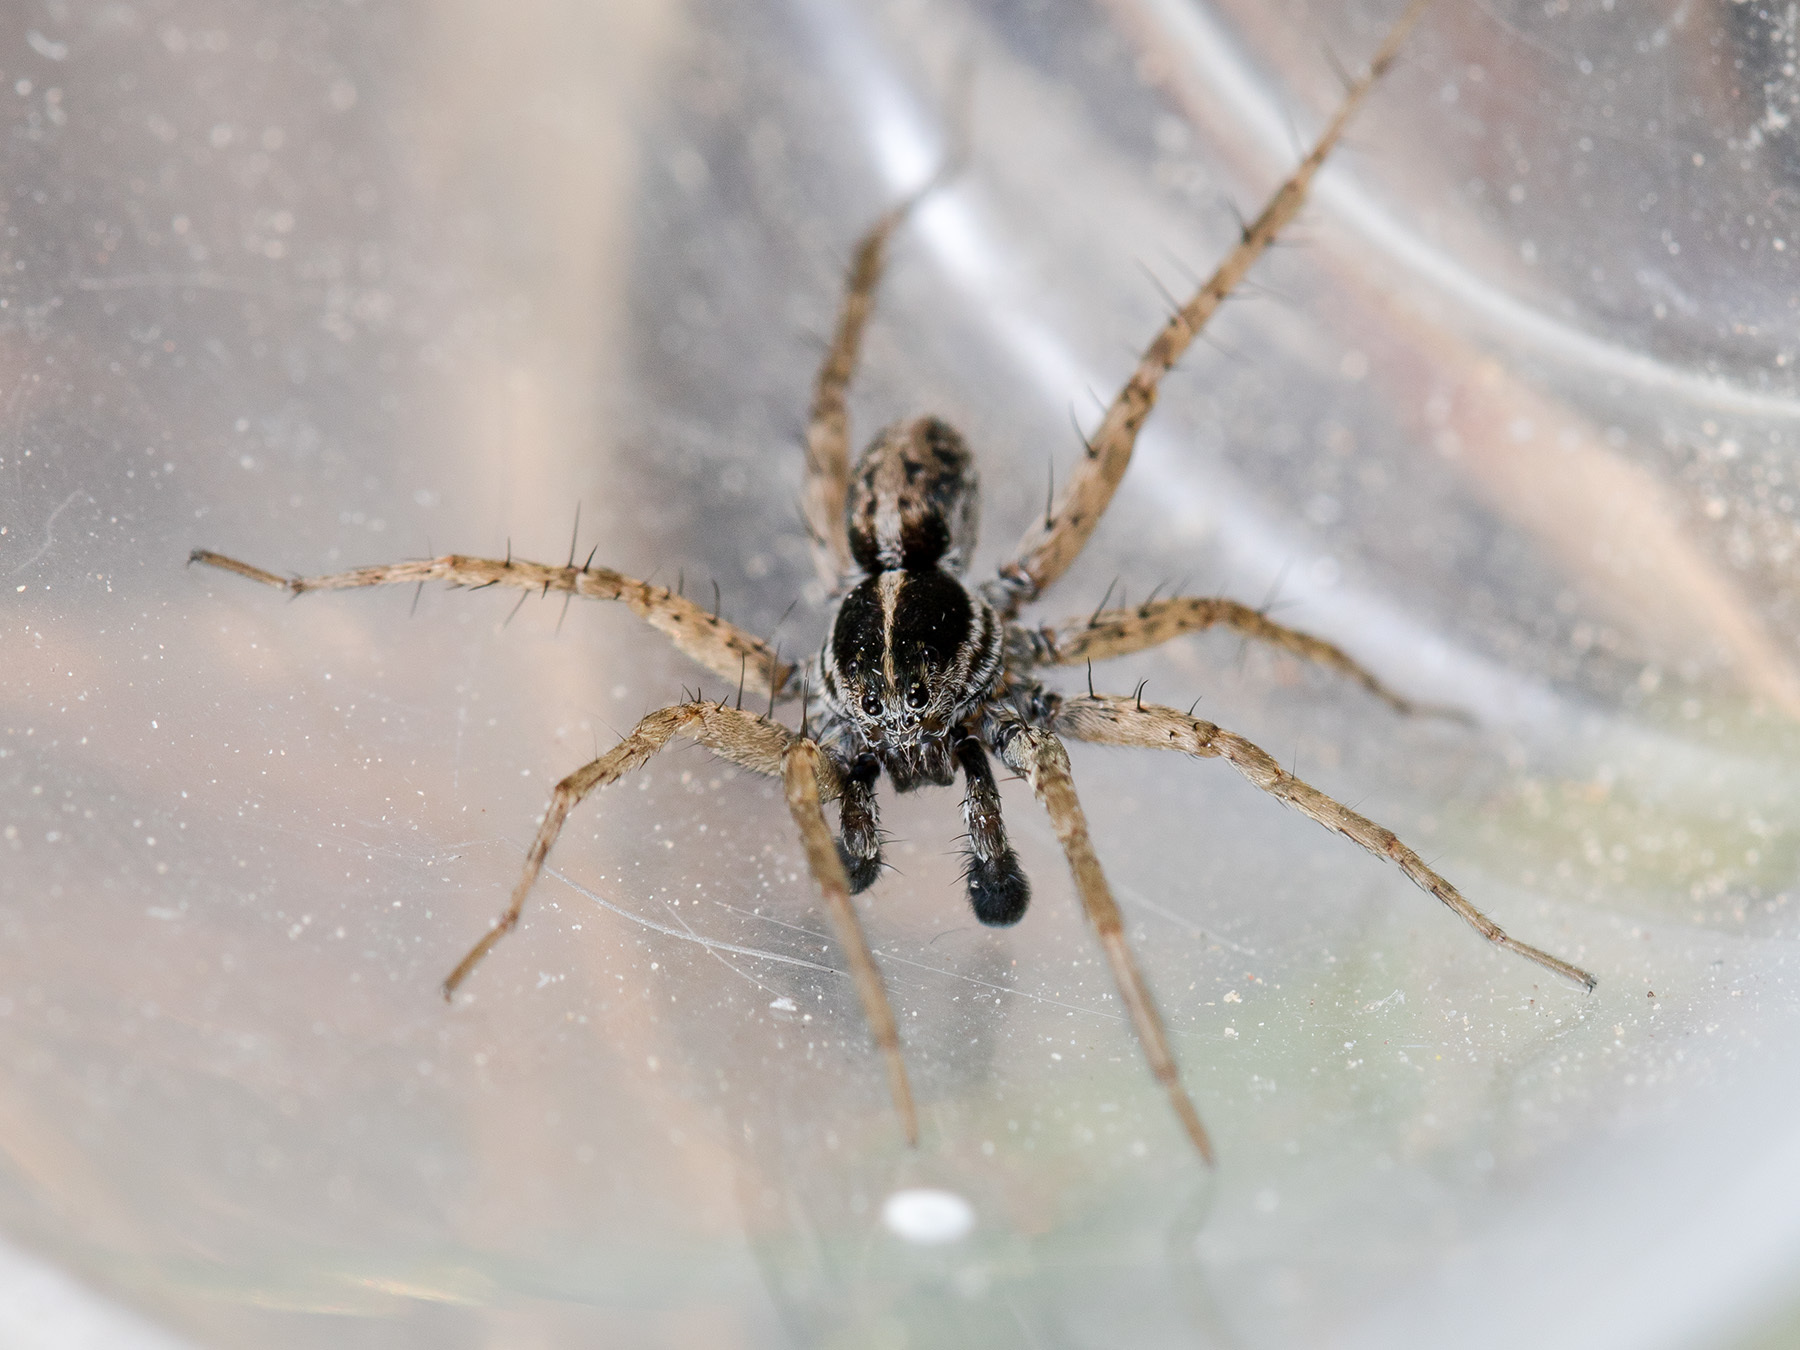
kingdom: Animalia
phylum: Arthropoda
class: Arachnida
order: Araneae
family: Lycosidae
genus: Pardosa
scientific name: Pardosa zonsteini
